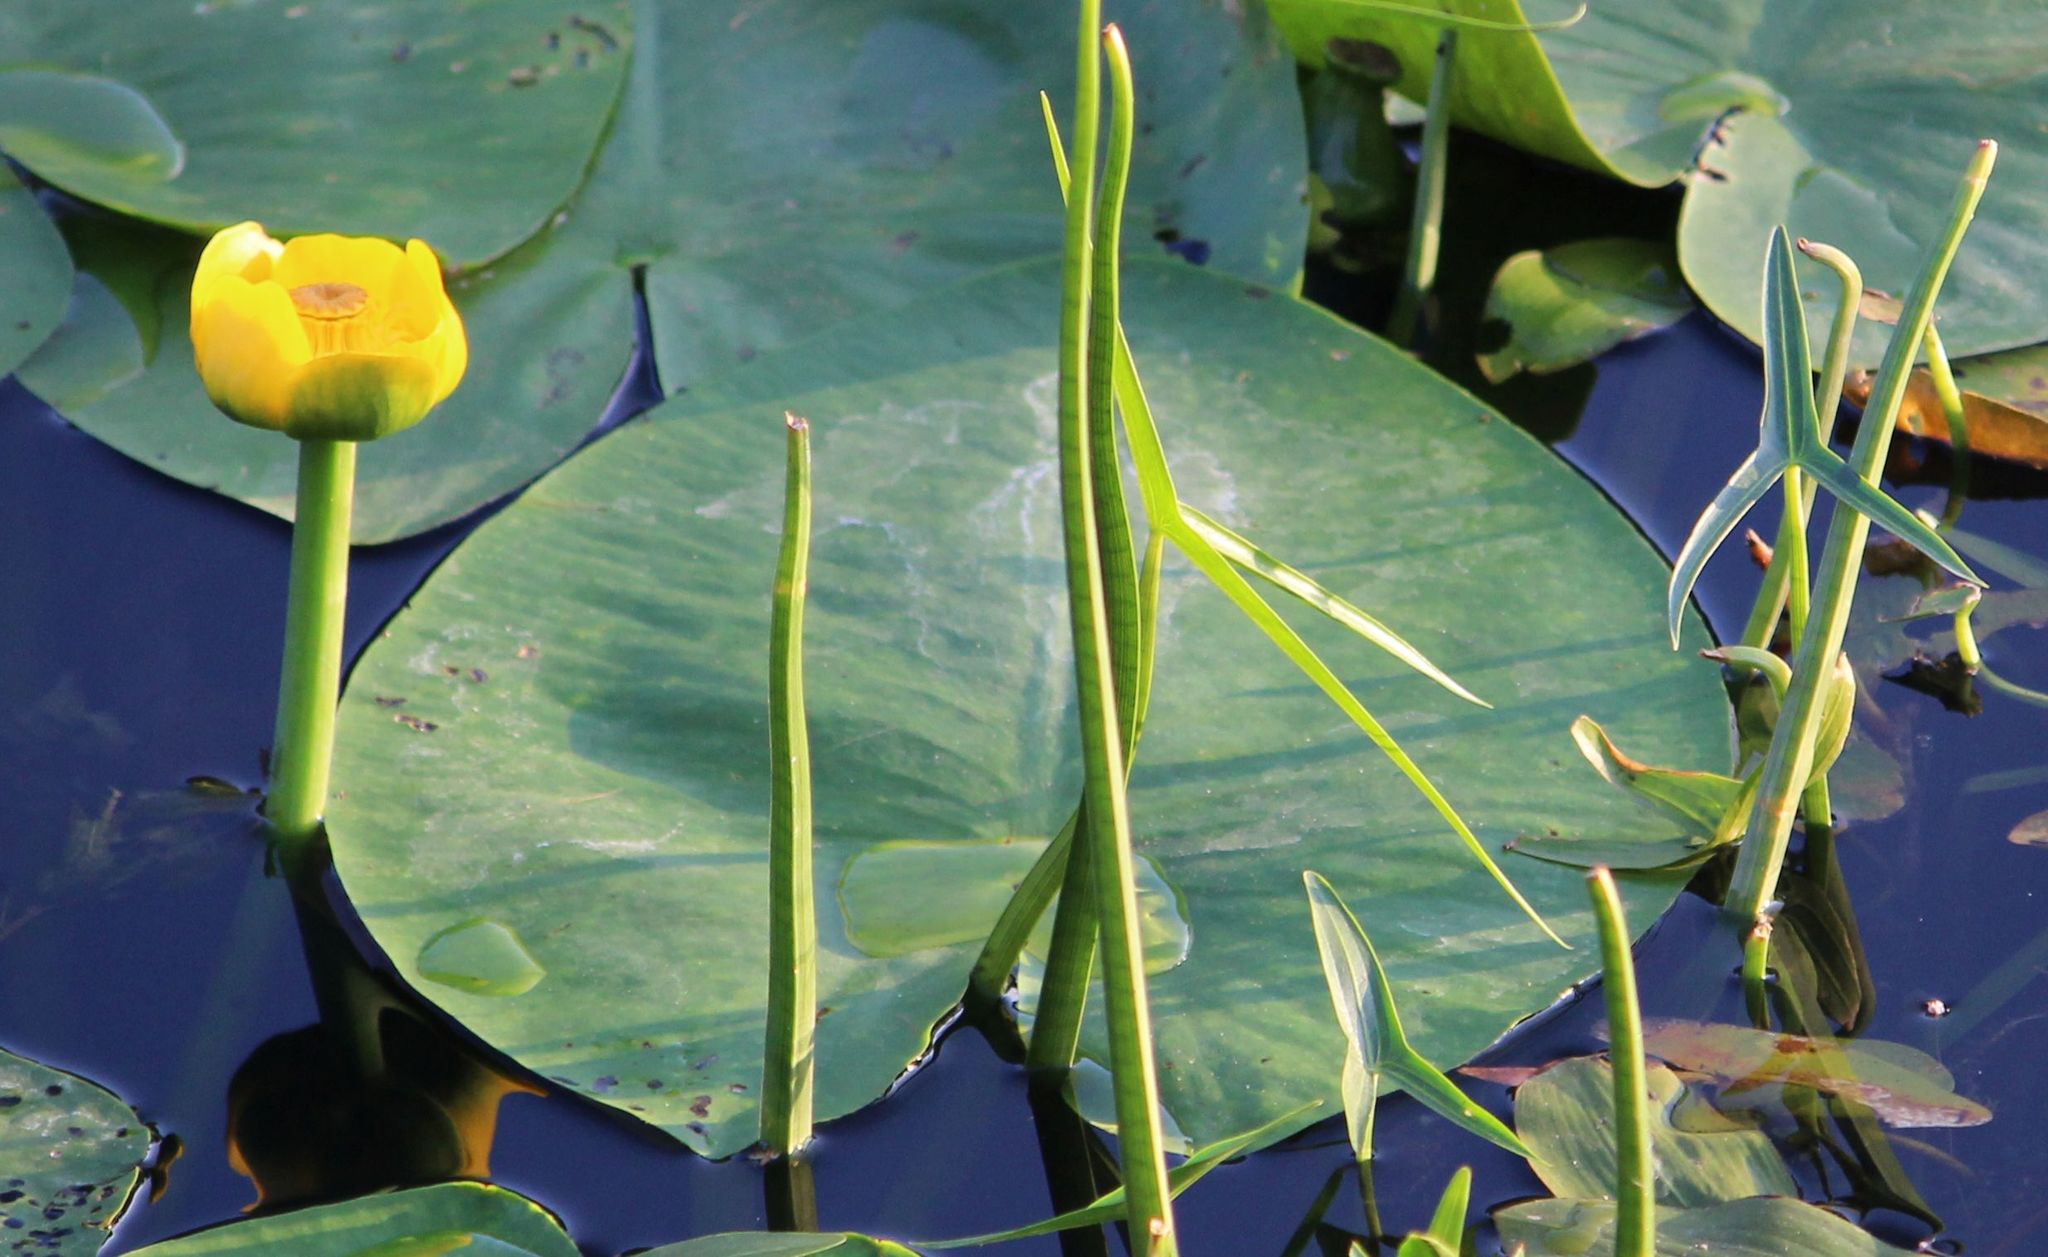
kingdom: Plantae
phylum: Tracheophyta
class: Magnoliopsida
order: Nymphaeales
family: Nymphaeaceae
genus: Nuphar
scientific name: Nuphar lutea
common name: Yellow water-lily
